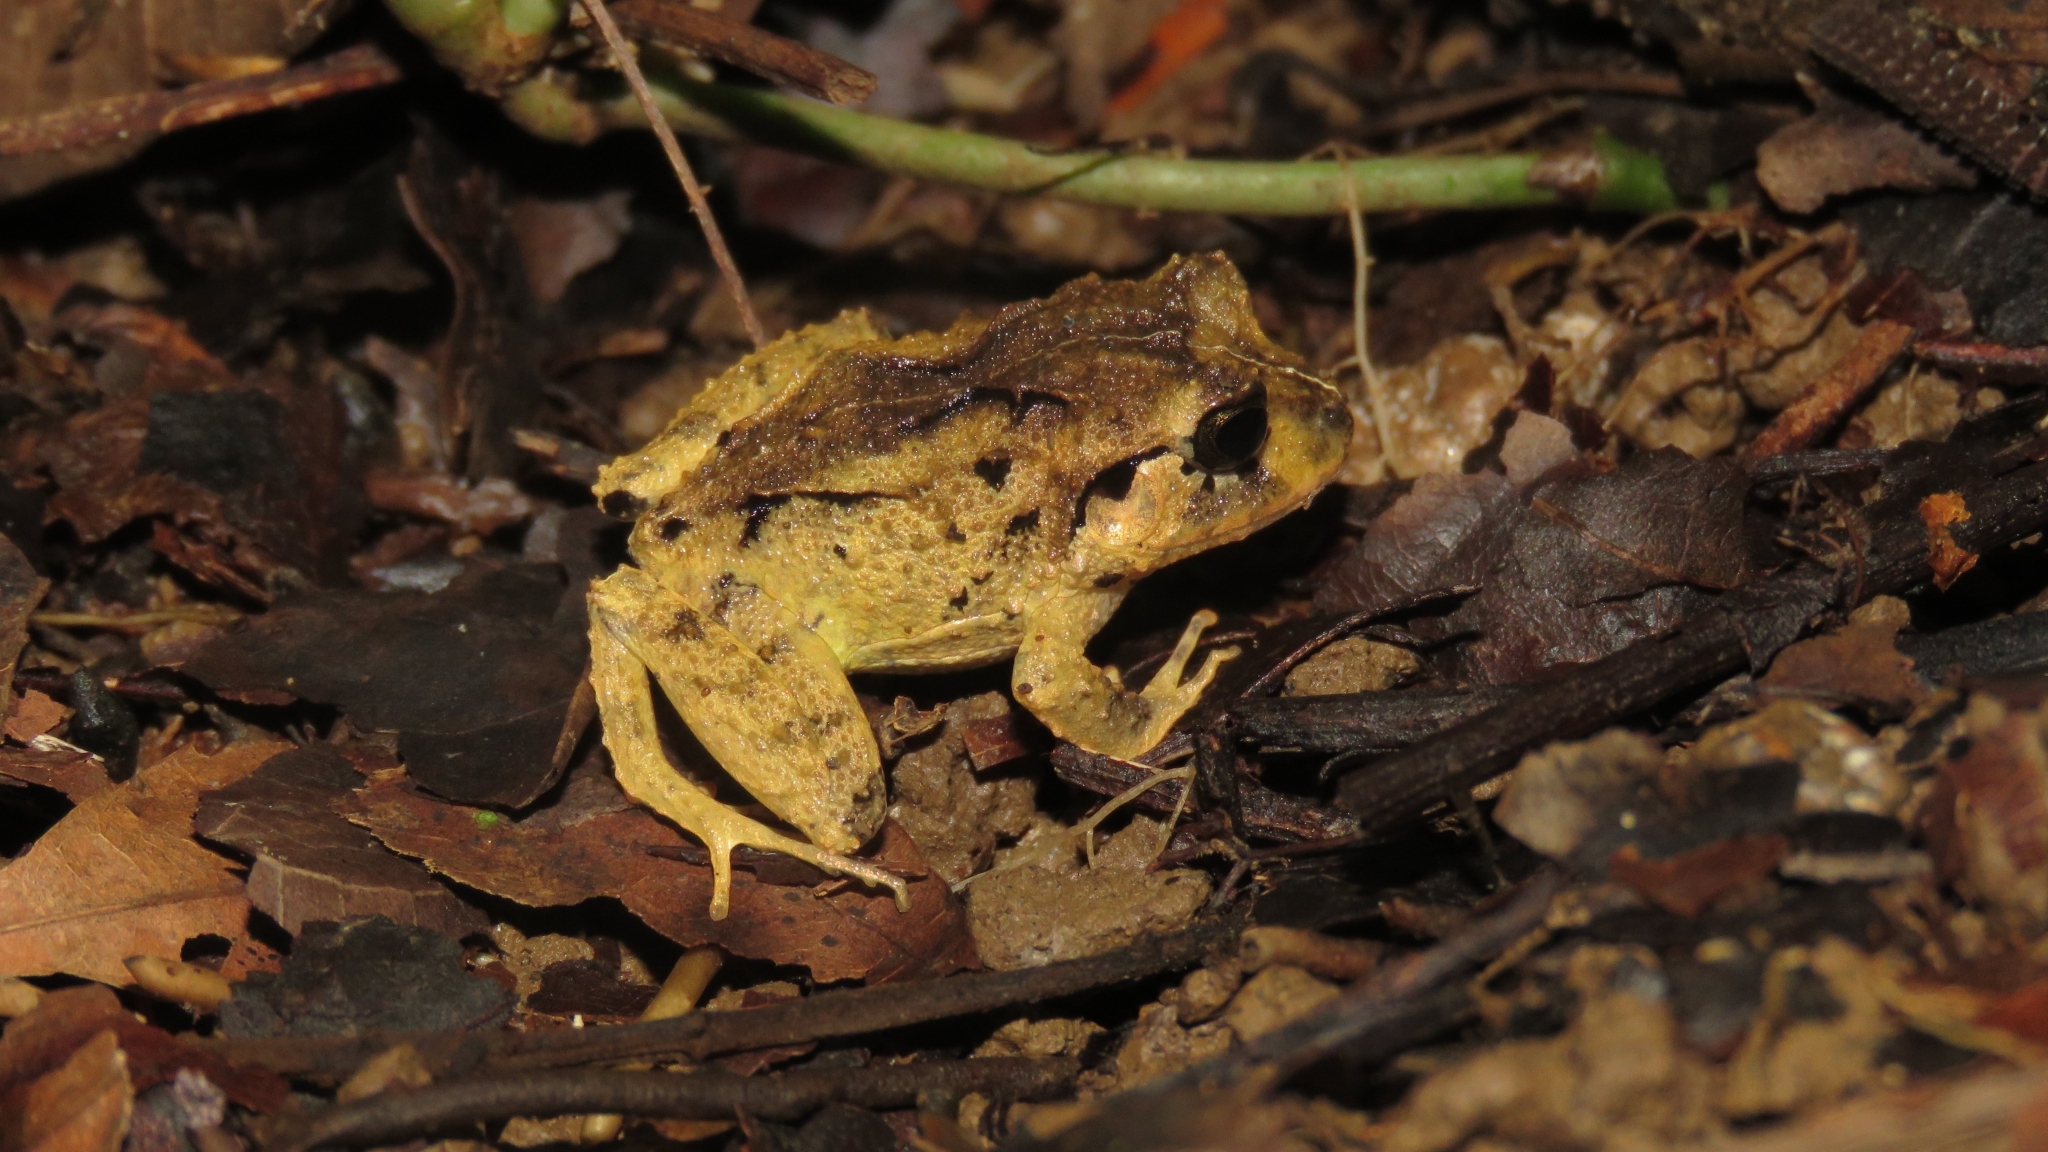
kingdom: Animalia
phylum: Chordata
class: Amphibia
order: Anura
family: Craugastoridae
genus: Craugastor
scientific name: Craugastor megacephalus
